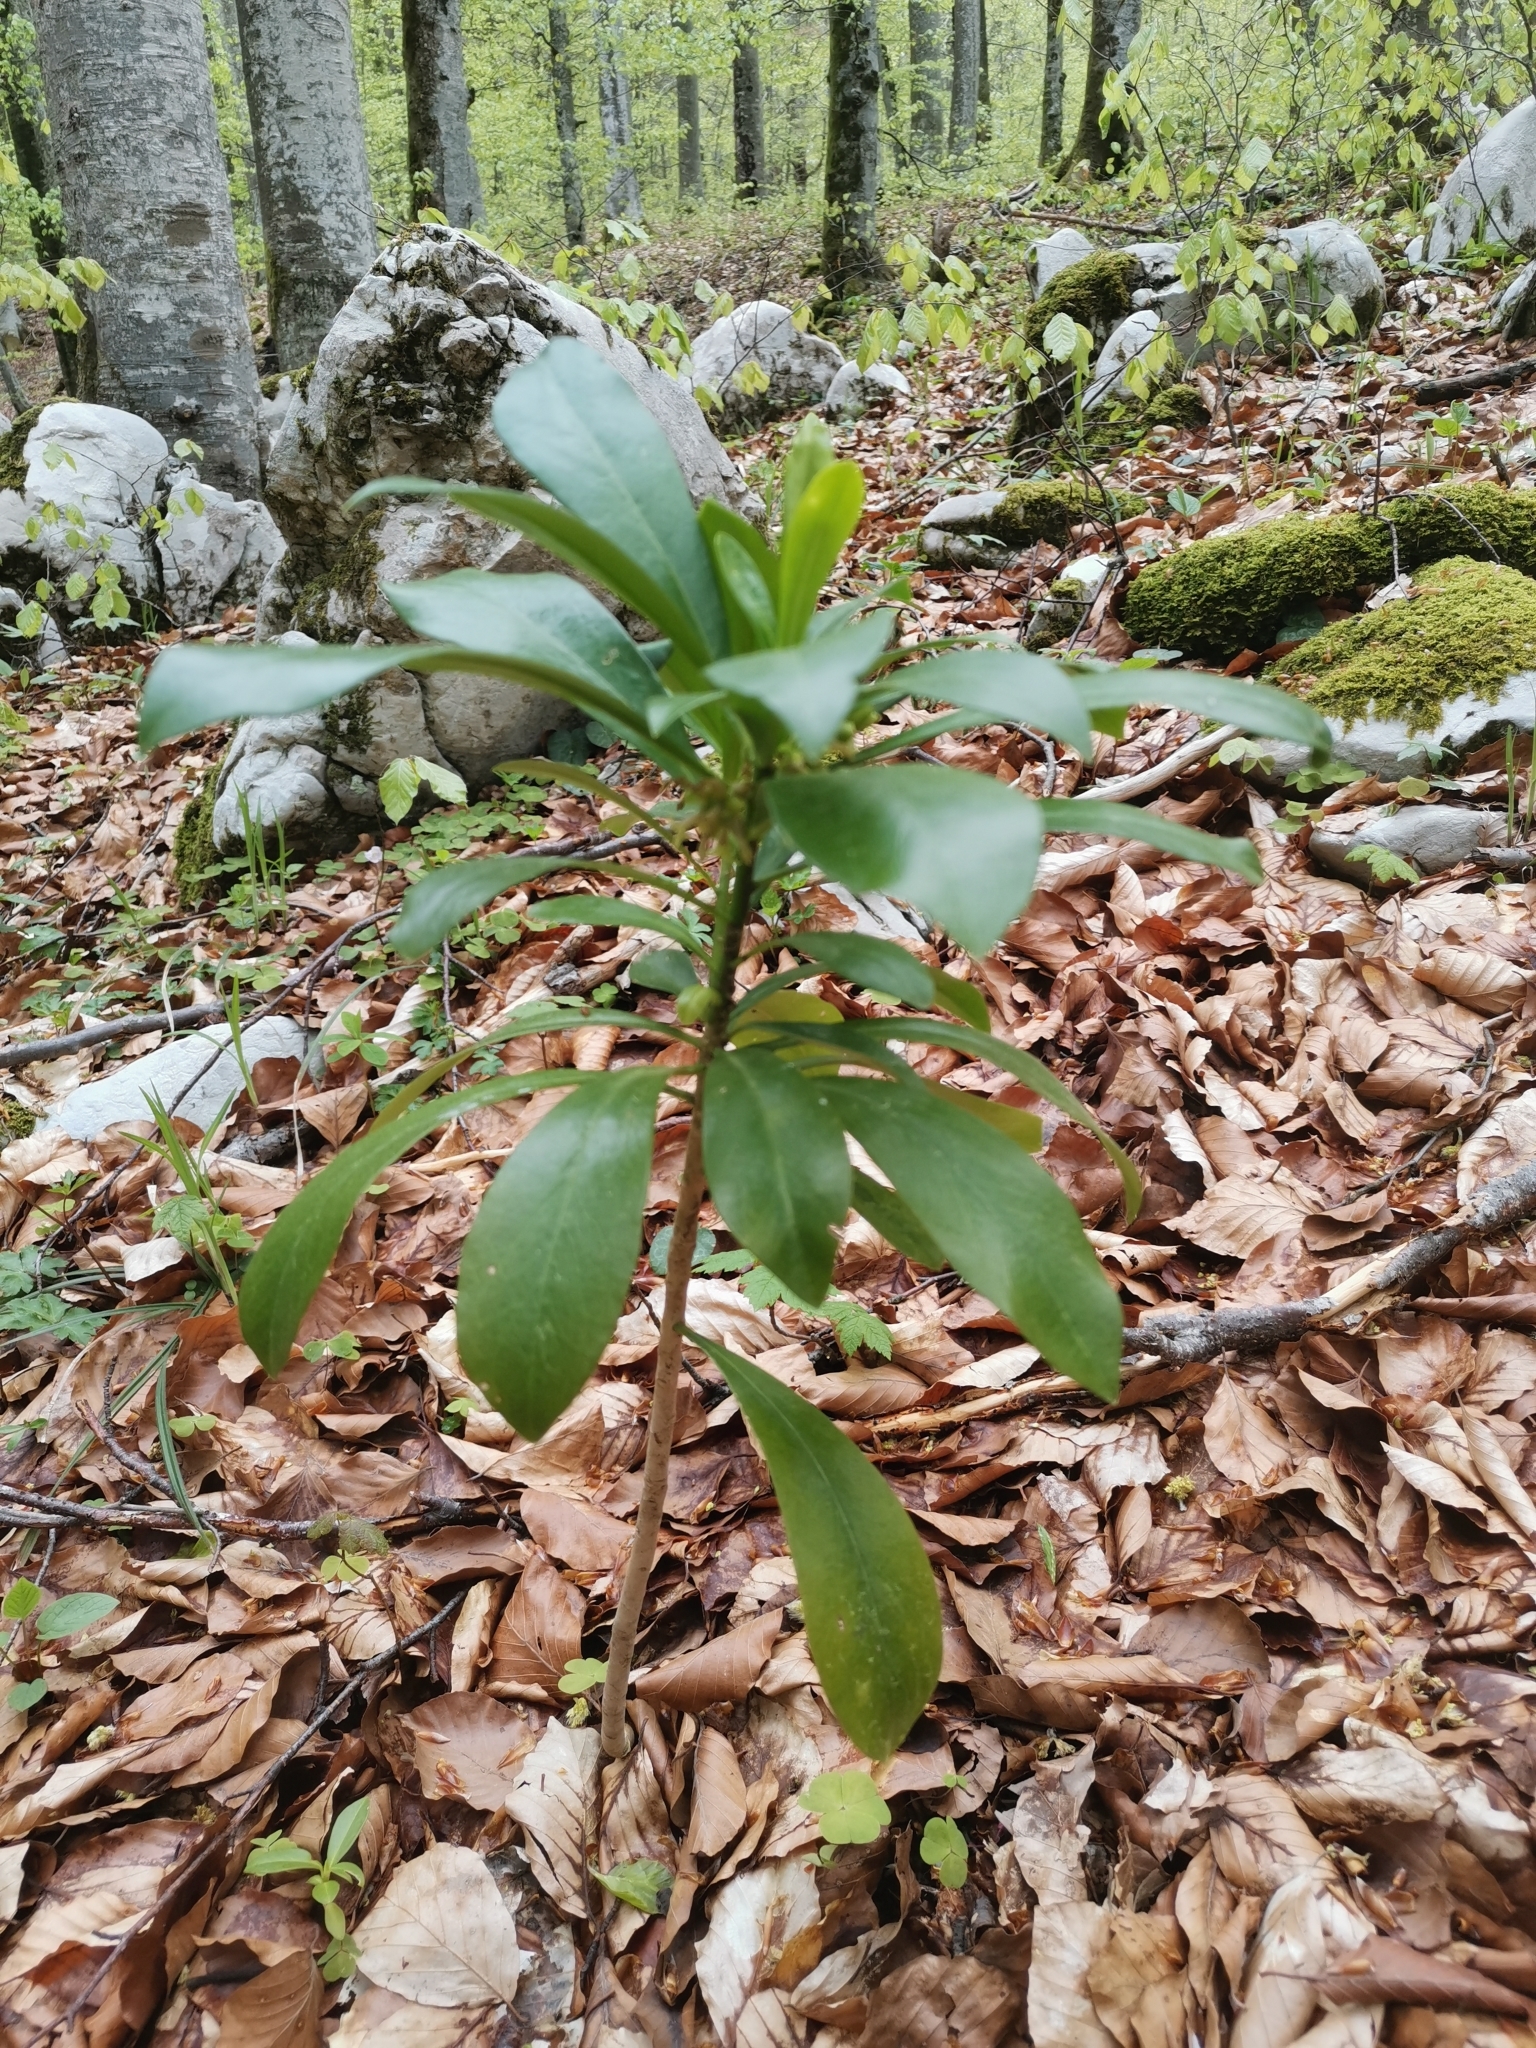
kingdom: Plantae
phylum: Tracheophyta
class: Magnoliopsida
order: Malvales
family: Thymelaeaceae
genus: Daphne
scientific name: Daphne laureola
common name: Spurge-laurel
